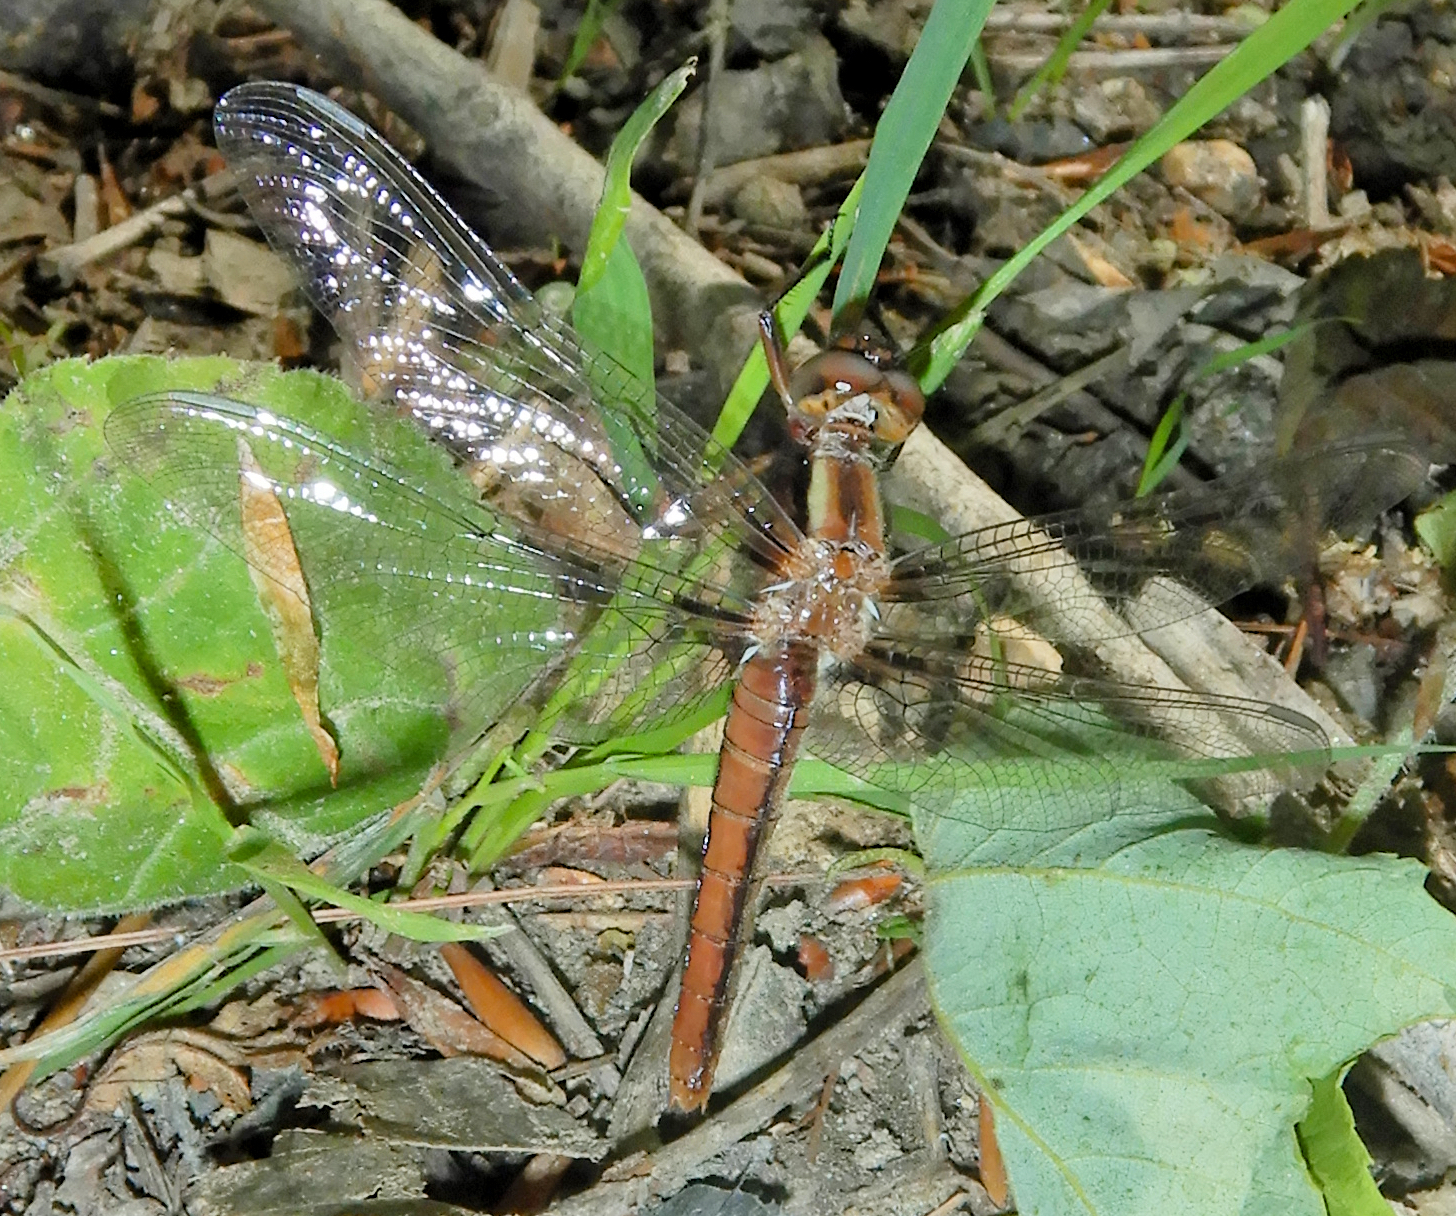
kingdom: Animalia
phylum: Arthropoda
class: Insecta
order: Odonata
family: Libellulidae
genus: Ladona
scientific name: Ladona julia
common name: Chalk-fronted corporal
